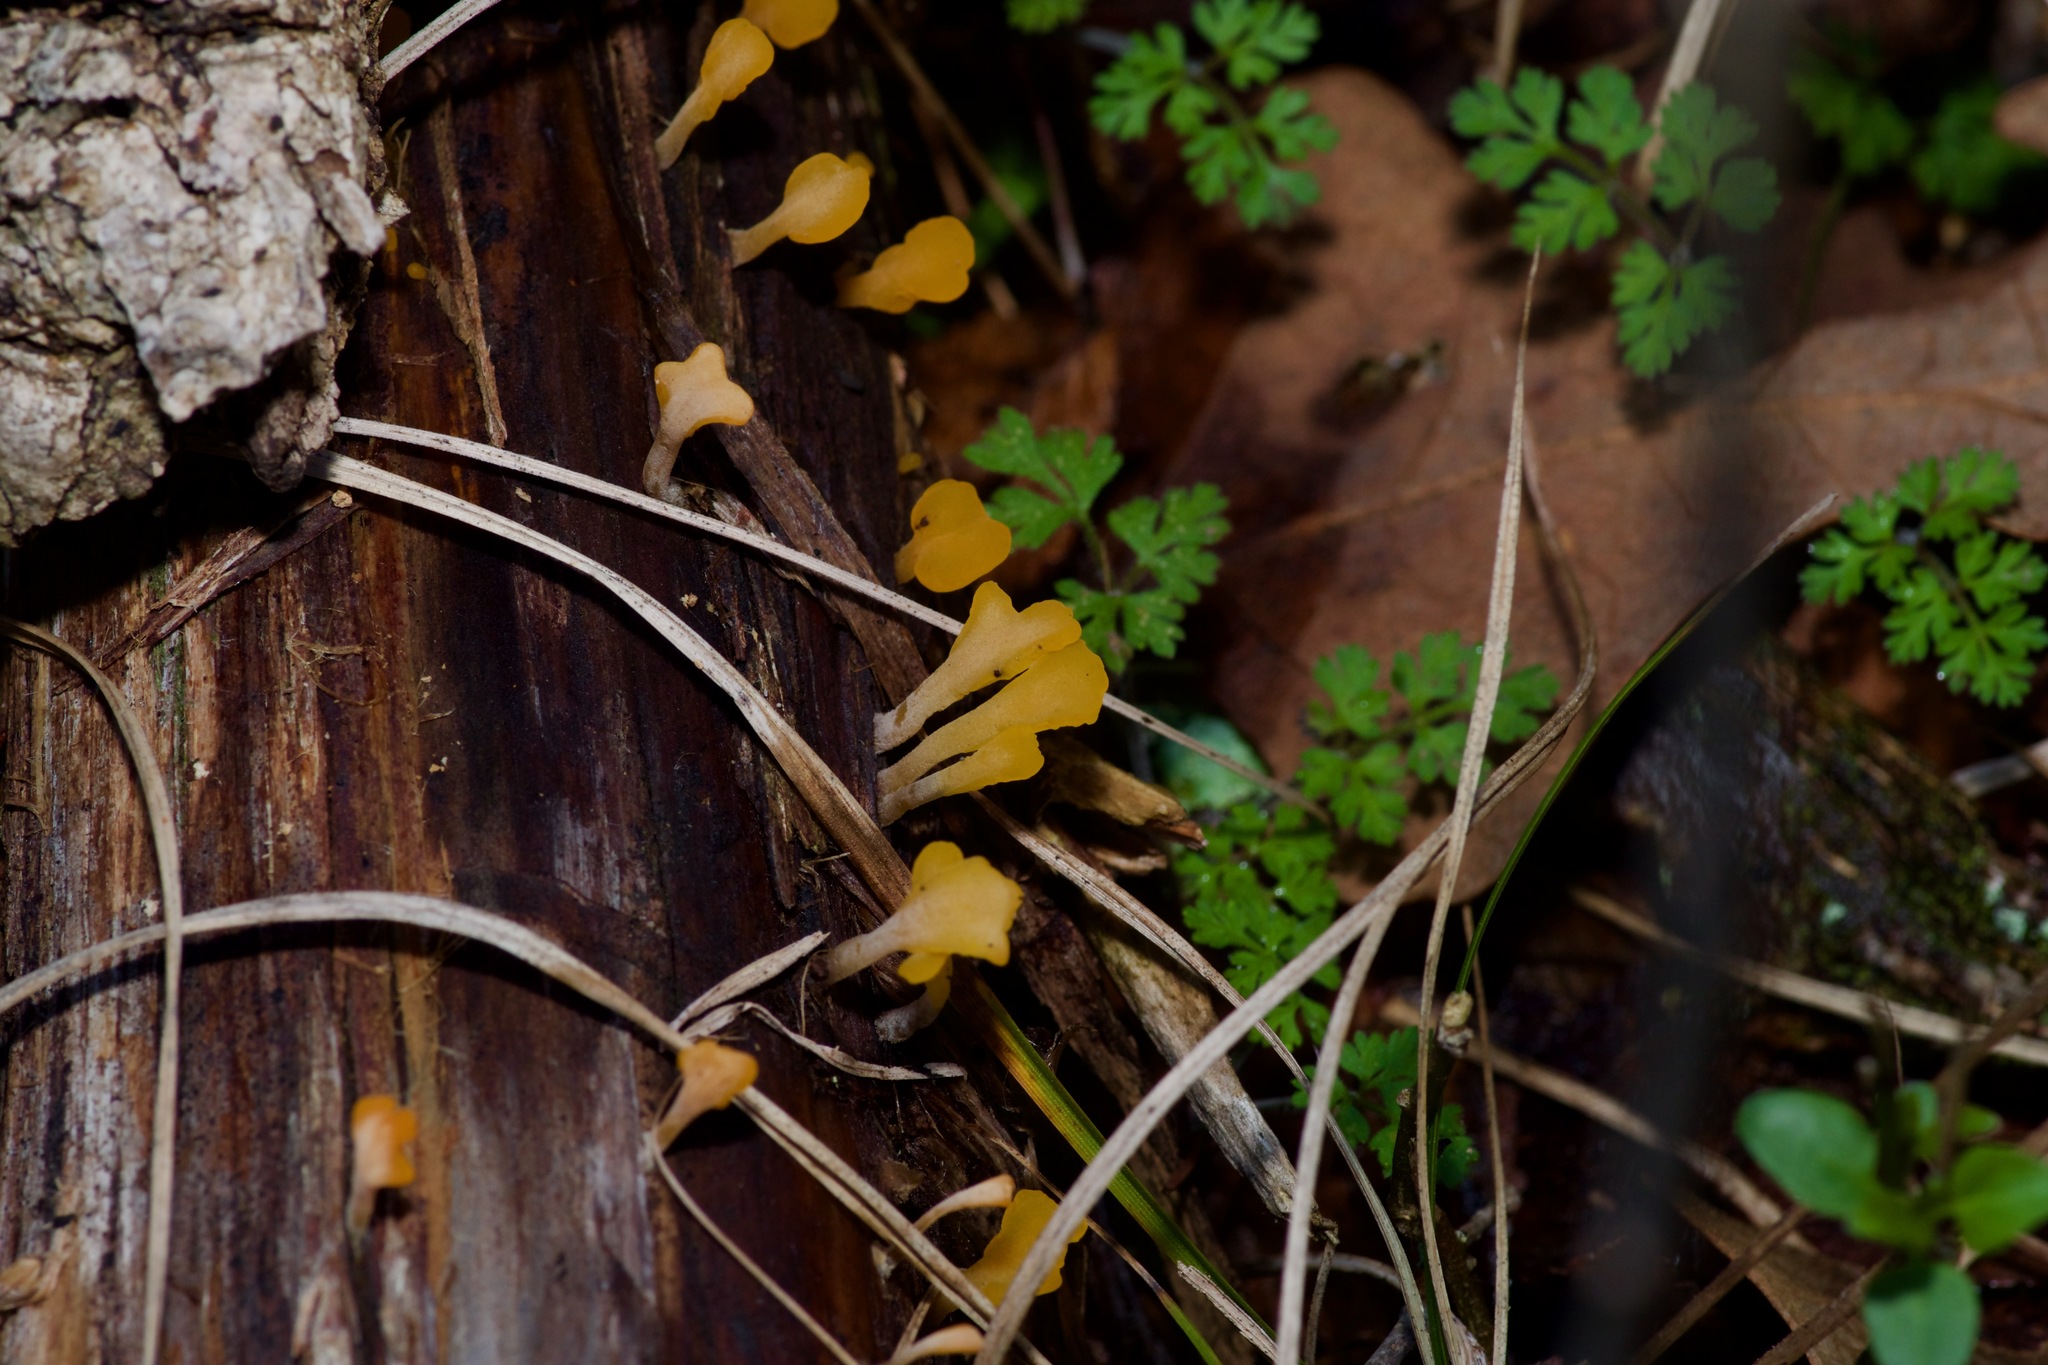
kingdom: Fungi
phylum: Basidiomycota
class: Dacrymycetes
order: Dacrymycetales
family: Dacrymycetaceae
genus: Dacrymyces
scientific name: Dacrymyces spathularius
